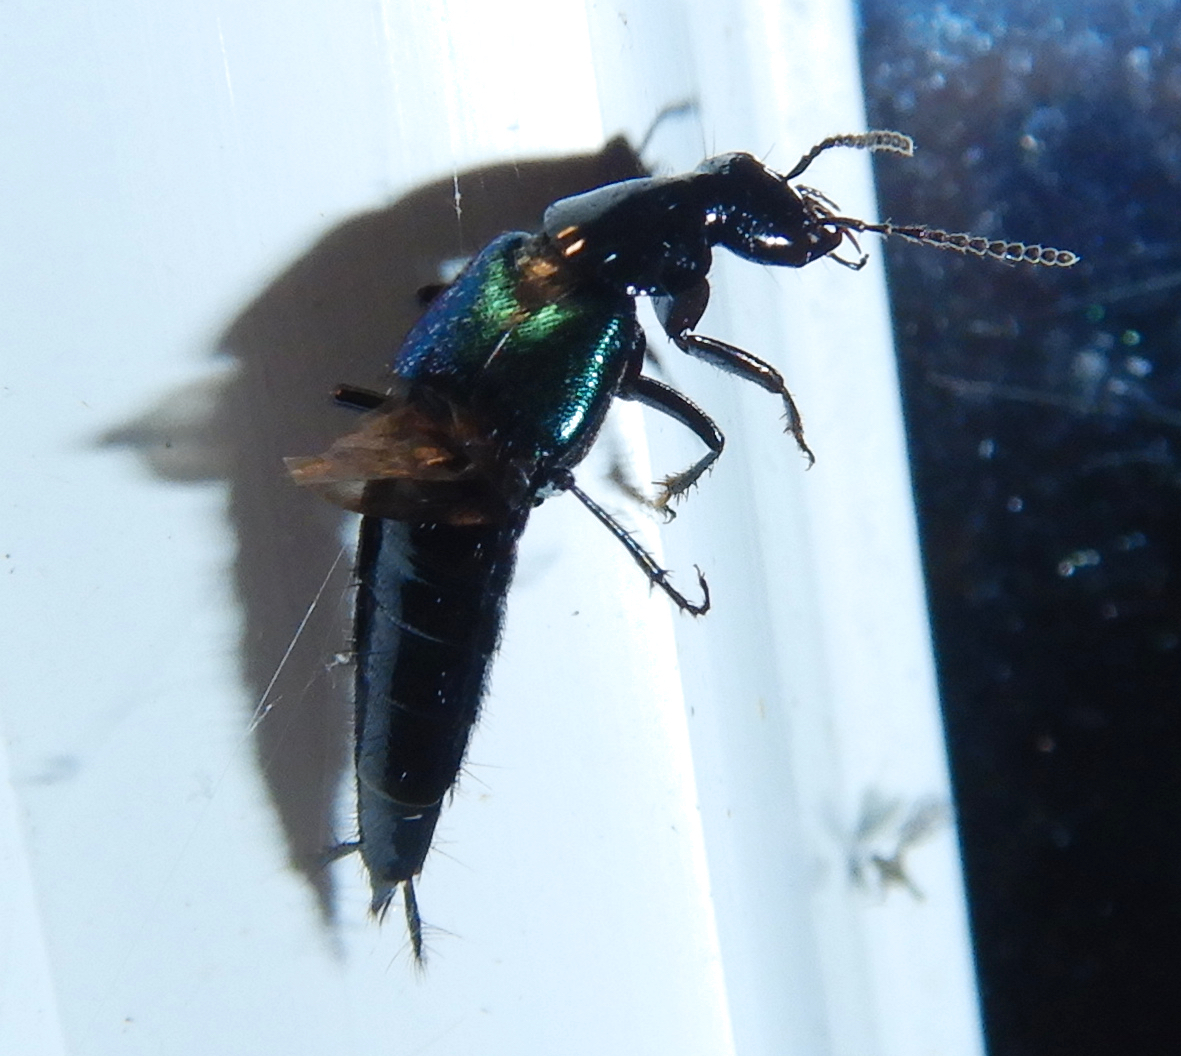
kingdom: Animalia
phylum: Arthropoda
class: Insecta
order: Coleoptera
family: Staphylinidae
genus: Philonthus
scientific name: Philonthus caeruleipennis
